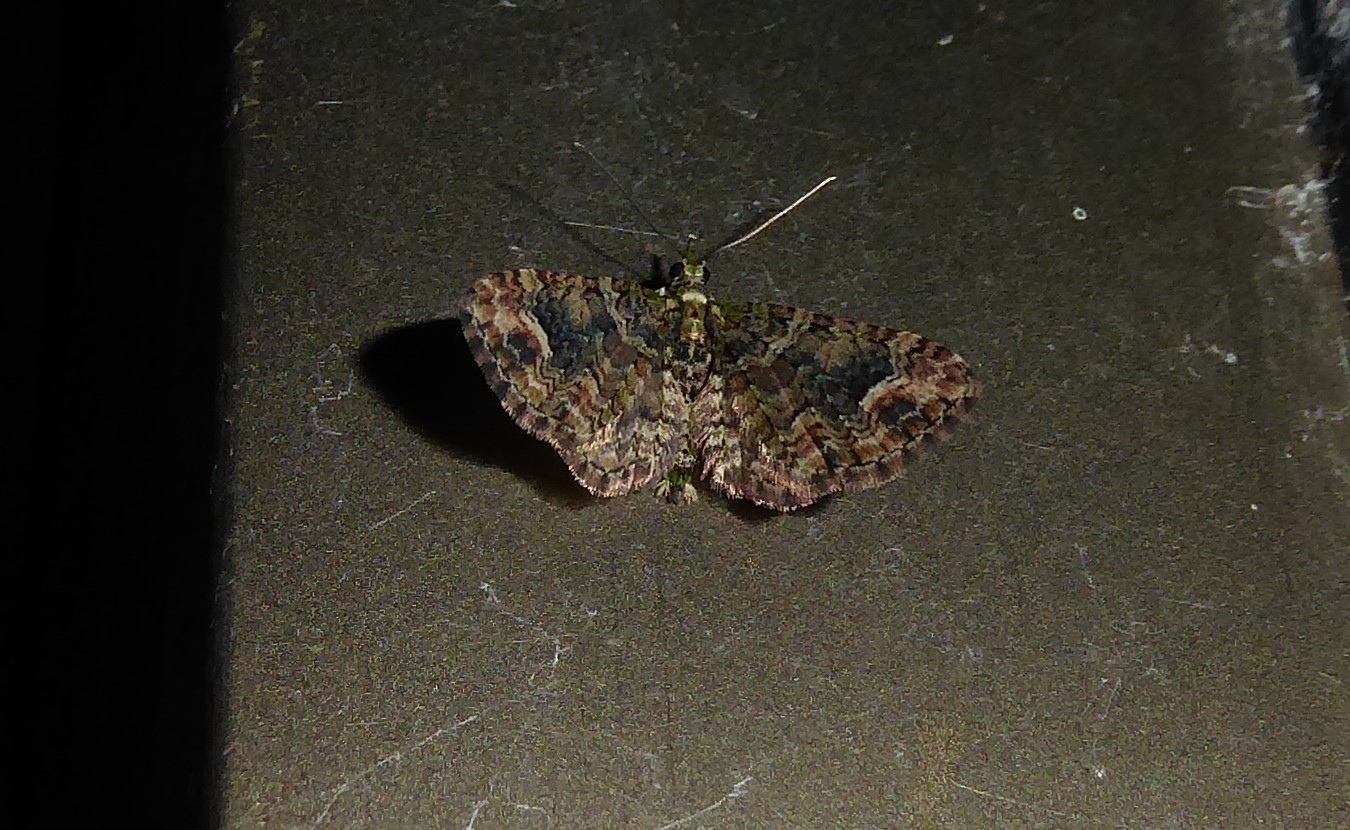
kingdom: Animalia
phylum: Arthropoda
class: Insecta
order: Lepidoptera
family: Geometridae
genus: Idaea
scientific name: Idaea mutanda
